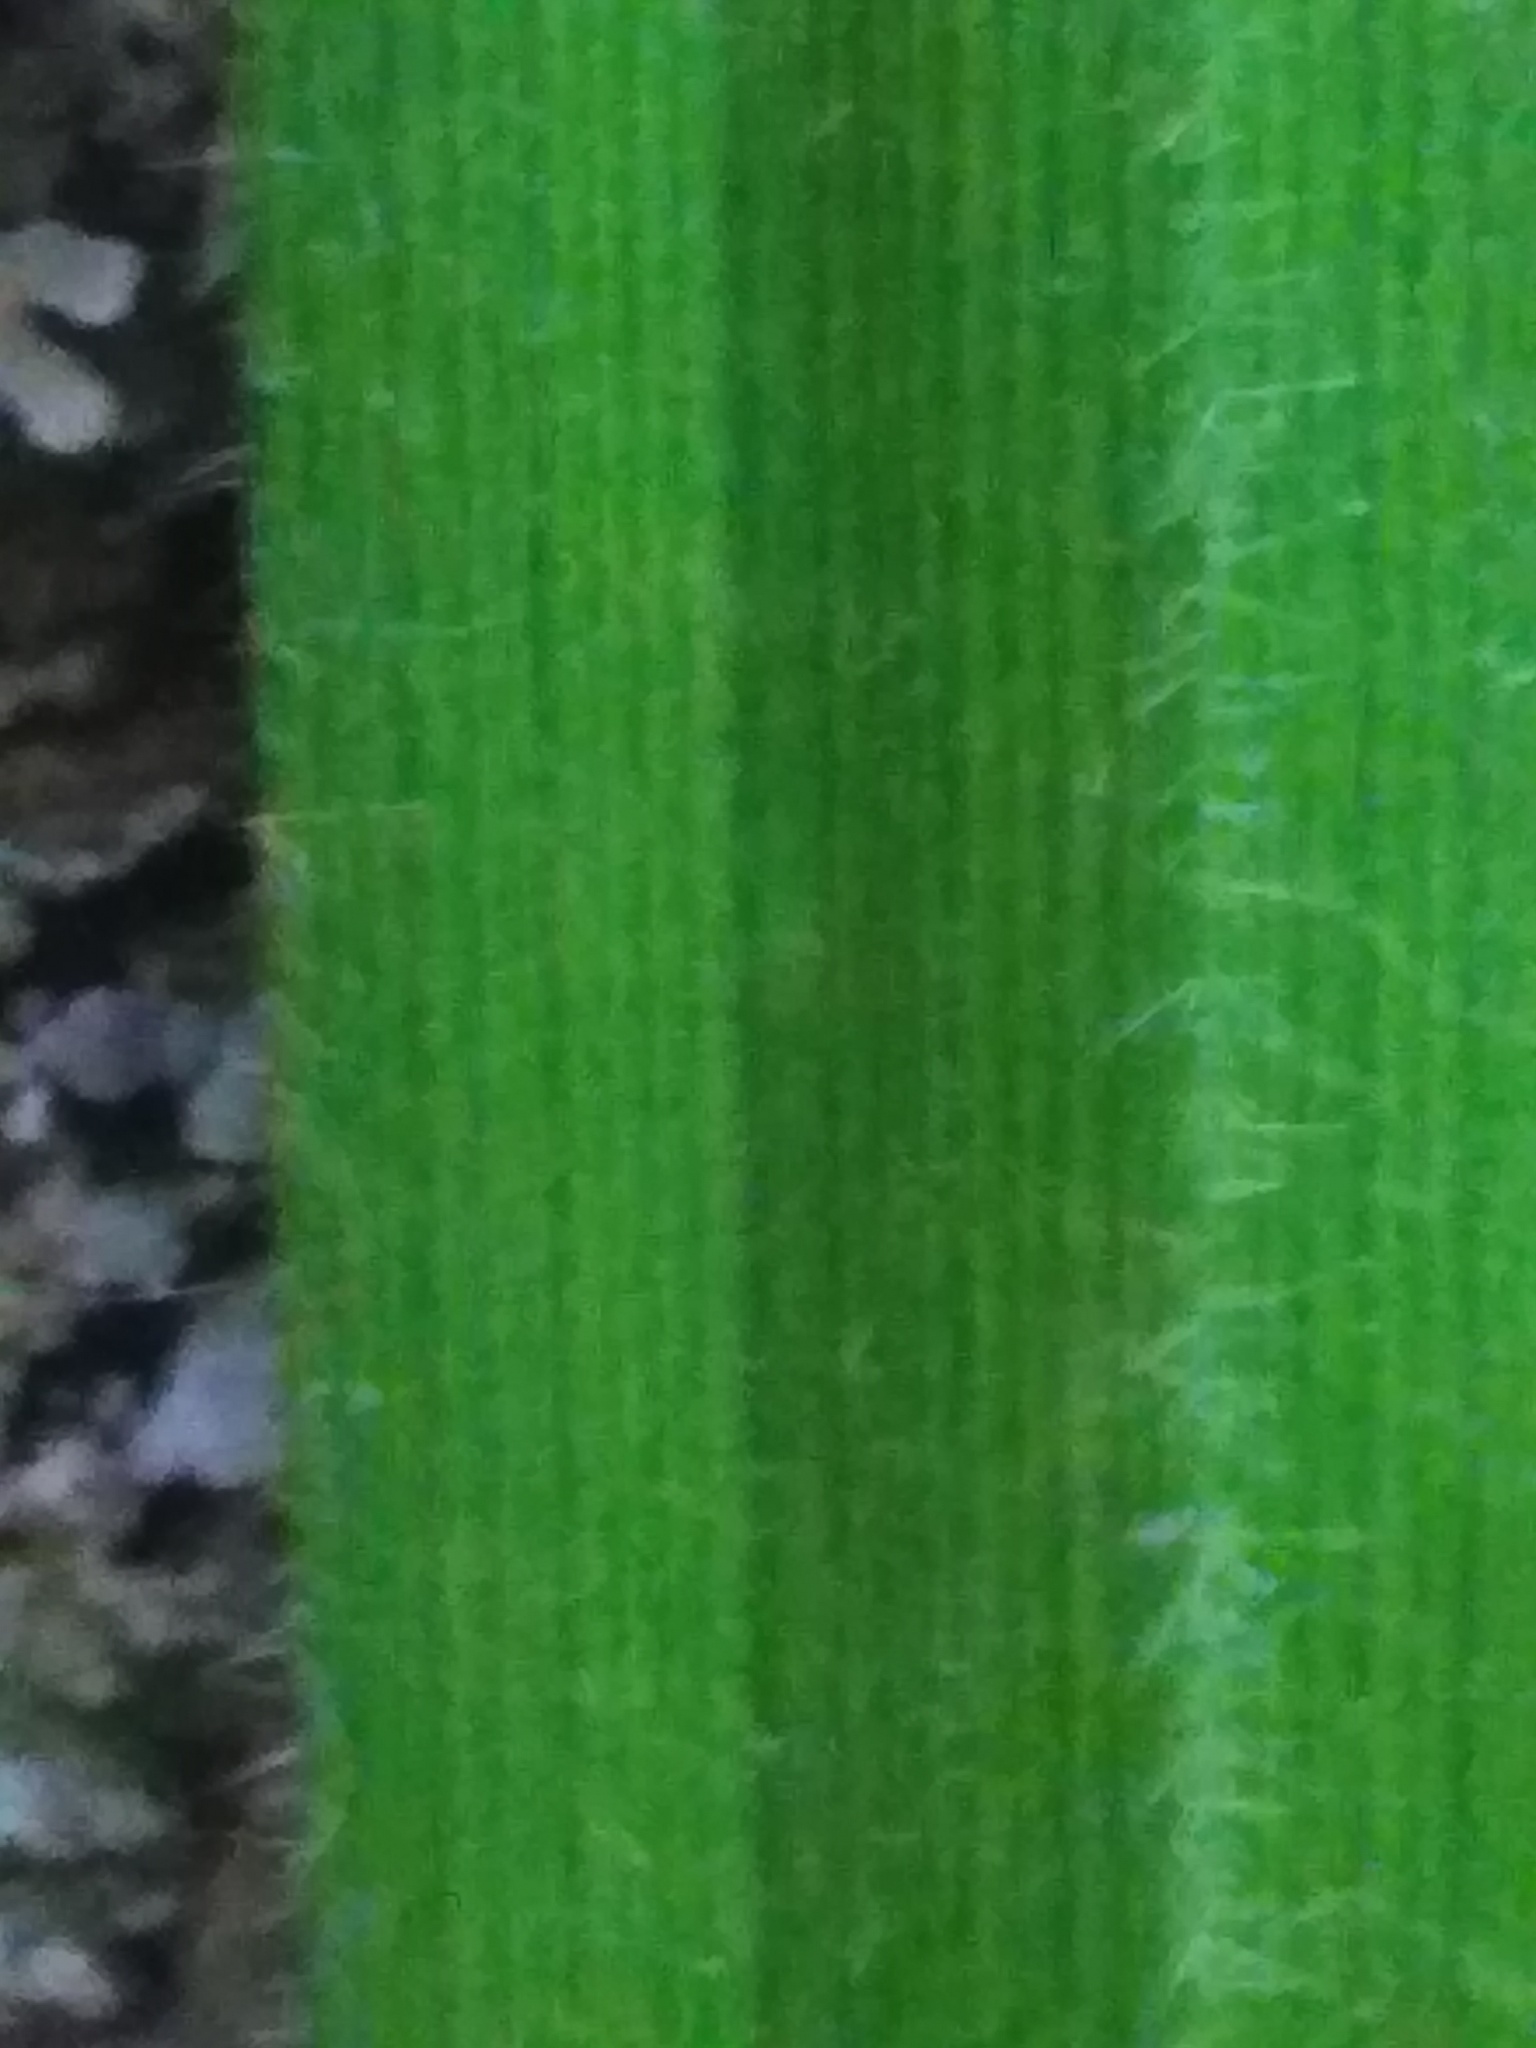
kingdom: Plantae
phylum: Tracheophyta
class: Liliopsida
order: Poales
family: Cyperaceae
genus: Carex
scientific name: Carex pilosa
